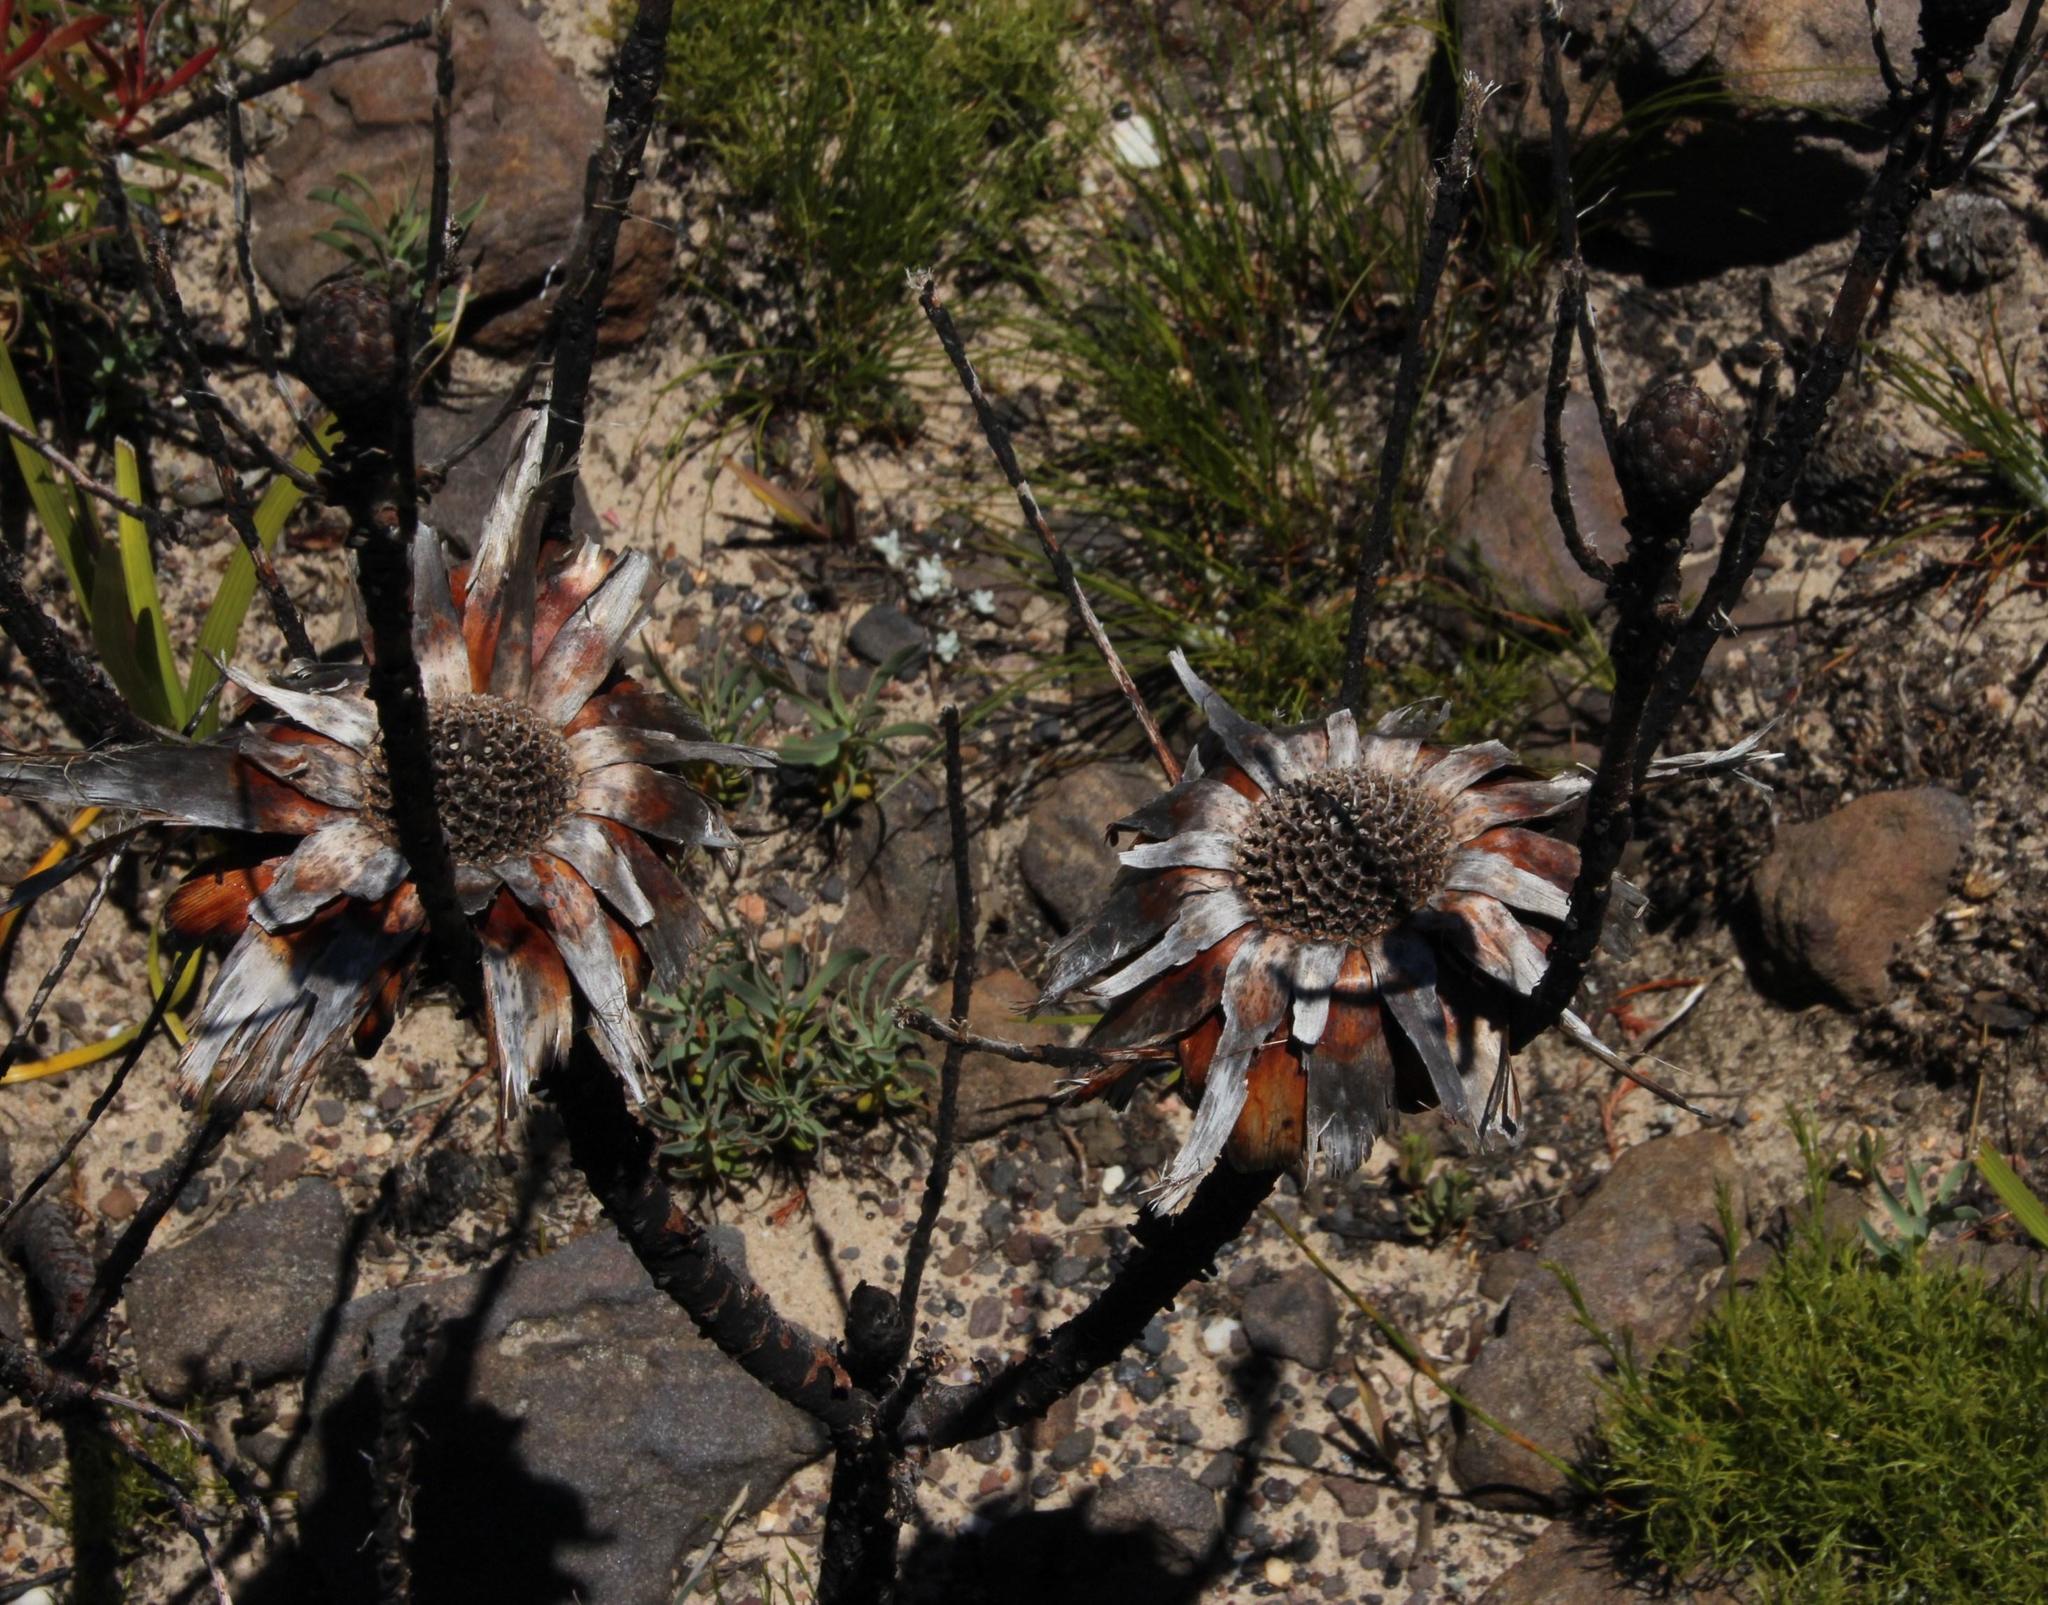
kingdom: Plantae
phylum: Tracheophyta
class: Magnoliopsida
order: Proteales
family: Proteaceae
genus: Protea
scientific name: Protea repens
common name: Sugarbush
